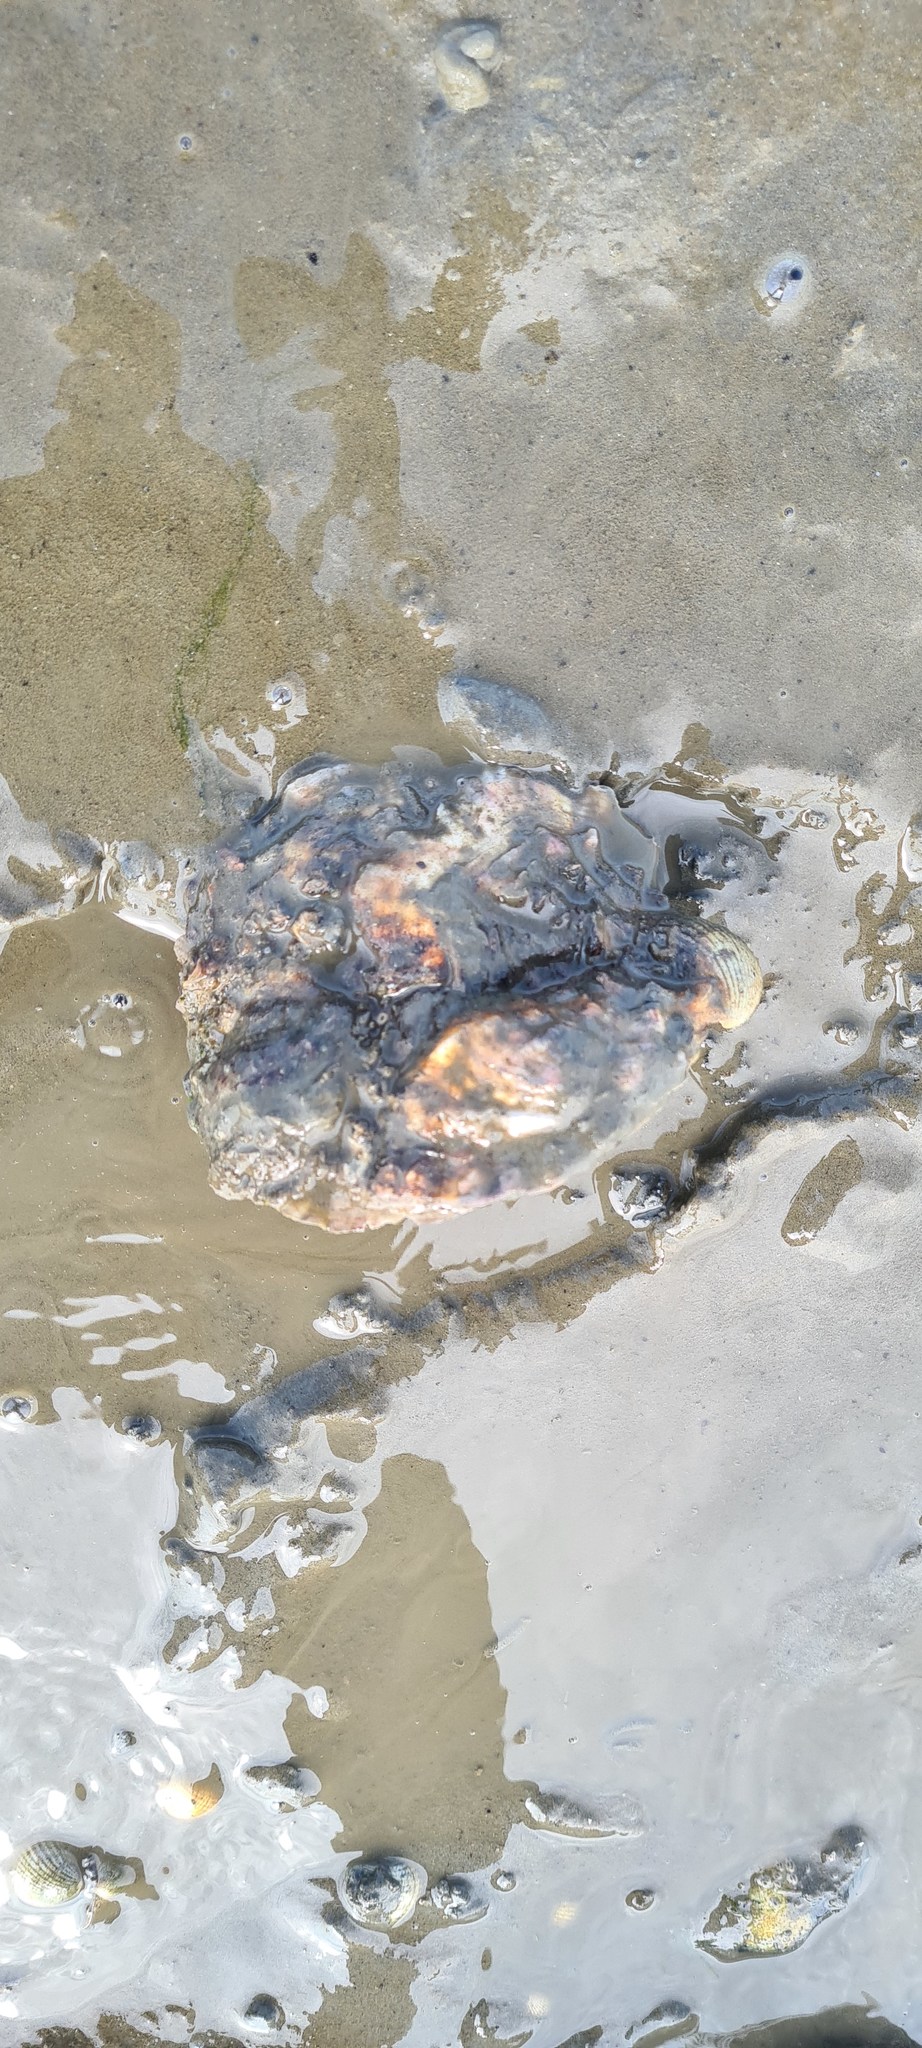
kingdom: Animalia
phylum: Mollusca
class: Bivalvia
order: Ostreida
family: Ostreidae
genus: Magallana
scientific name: Magallana gigas
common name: Pacific oyster
